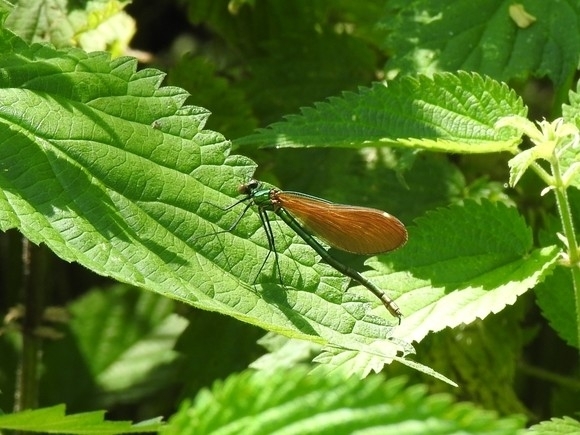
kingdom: Animalia
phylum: Arthropoda
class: Insecta
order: Odonata
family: Calopterygidae
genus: Calopteryx
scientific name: Calopteryx virgo
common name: Beautiful demoiselle
